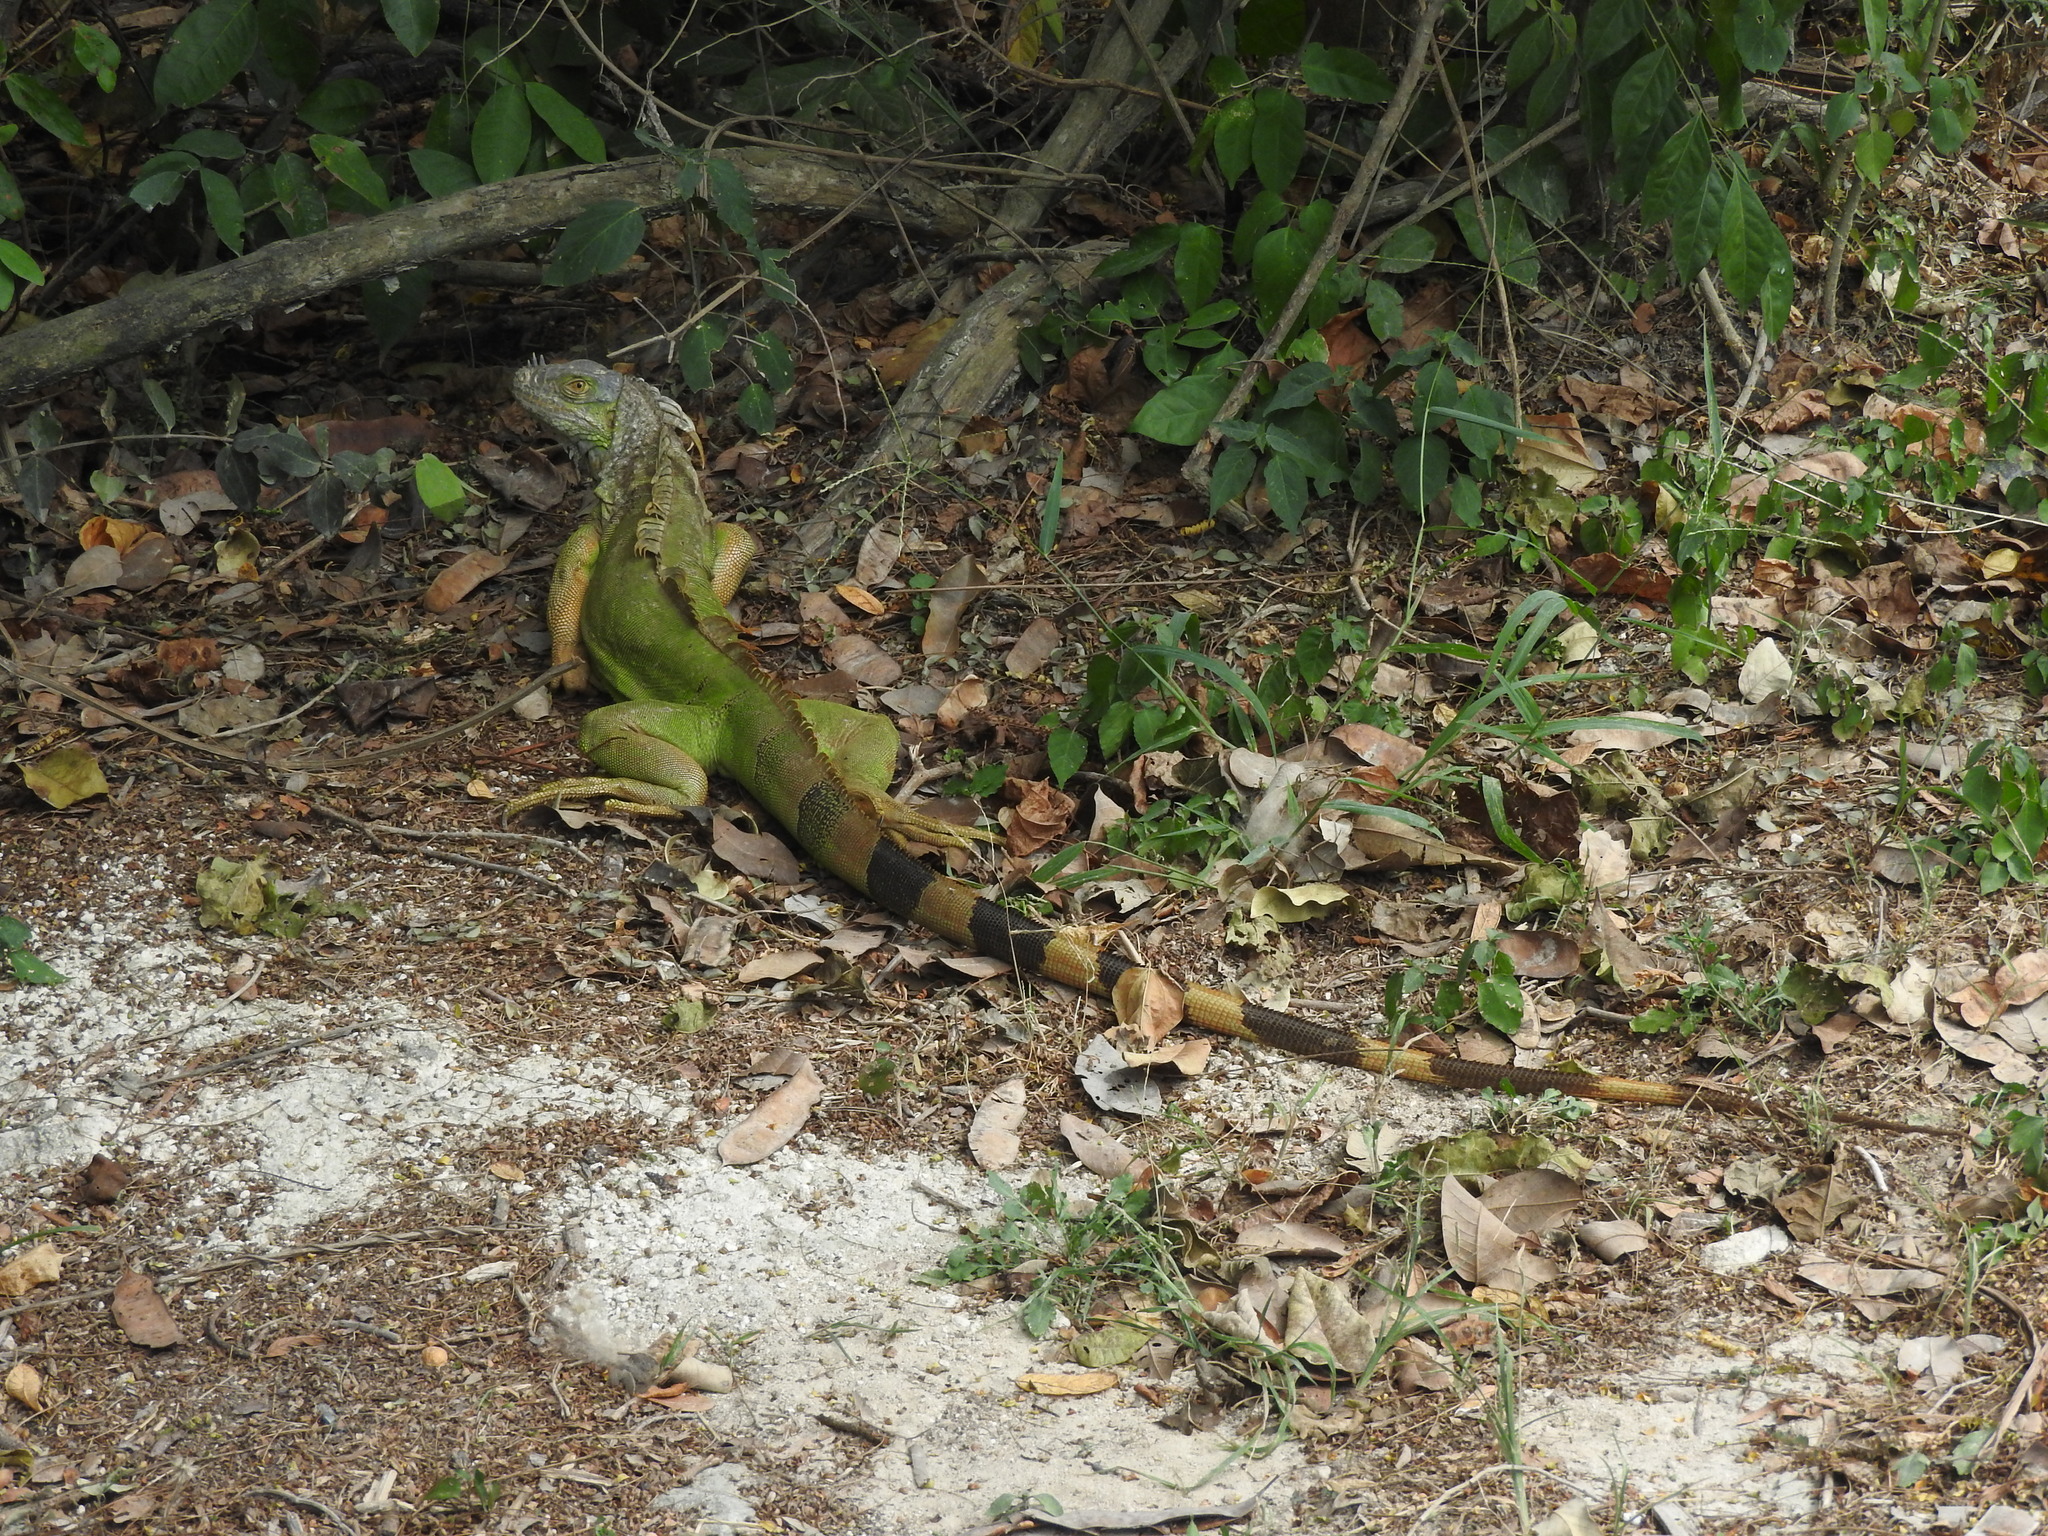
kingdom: Animalia
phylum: Chordata
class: Squamata
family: Iguanidae
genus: Iguana
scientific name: Iguana iguana
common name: Green iguana
